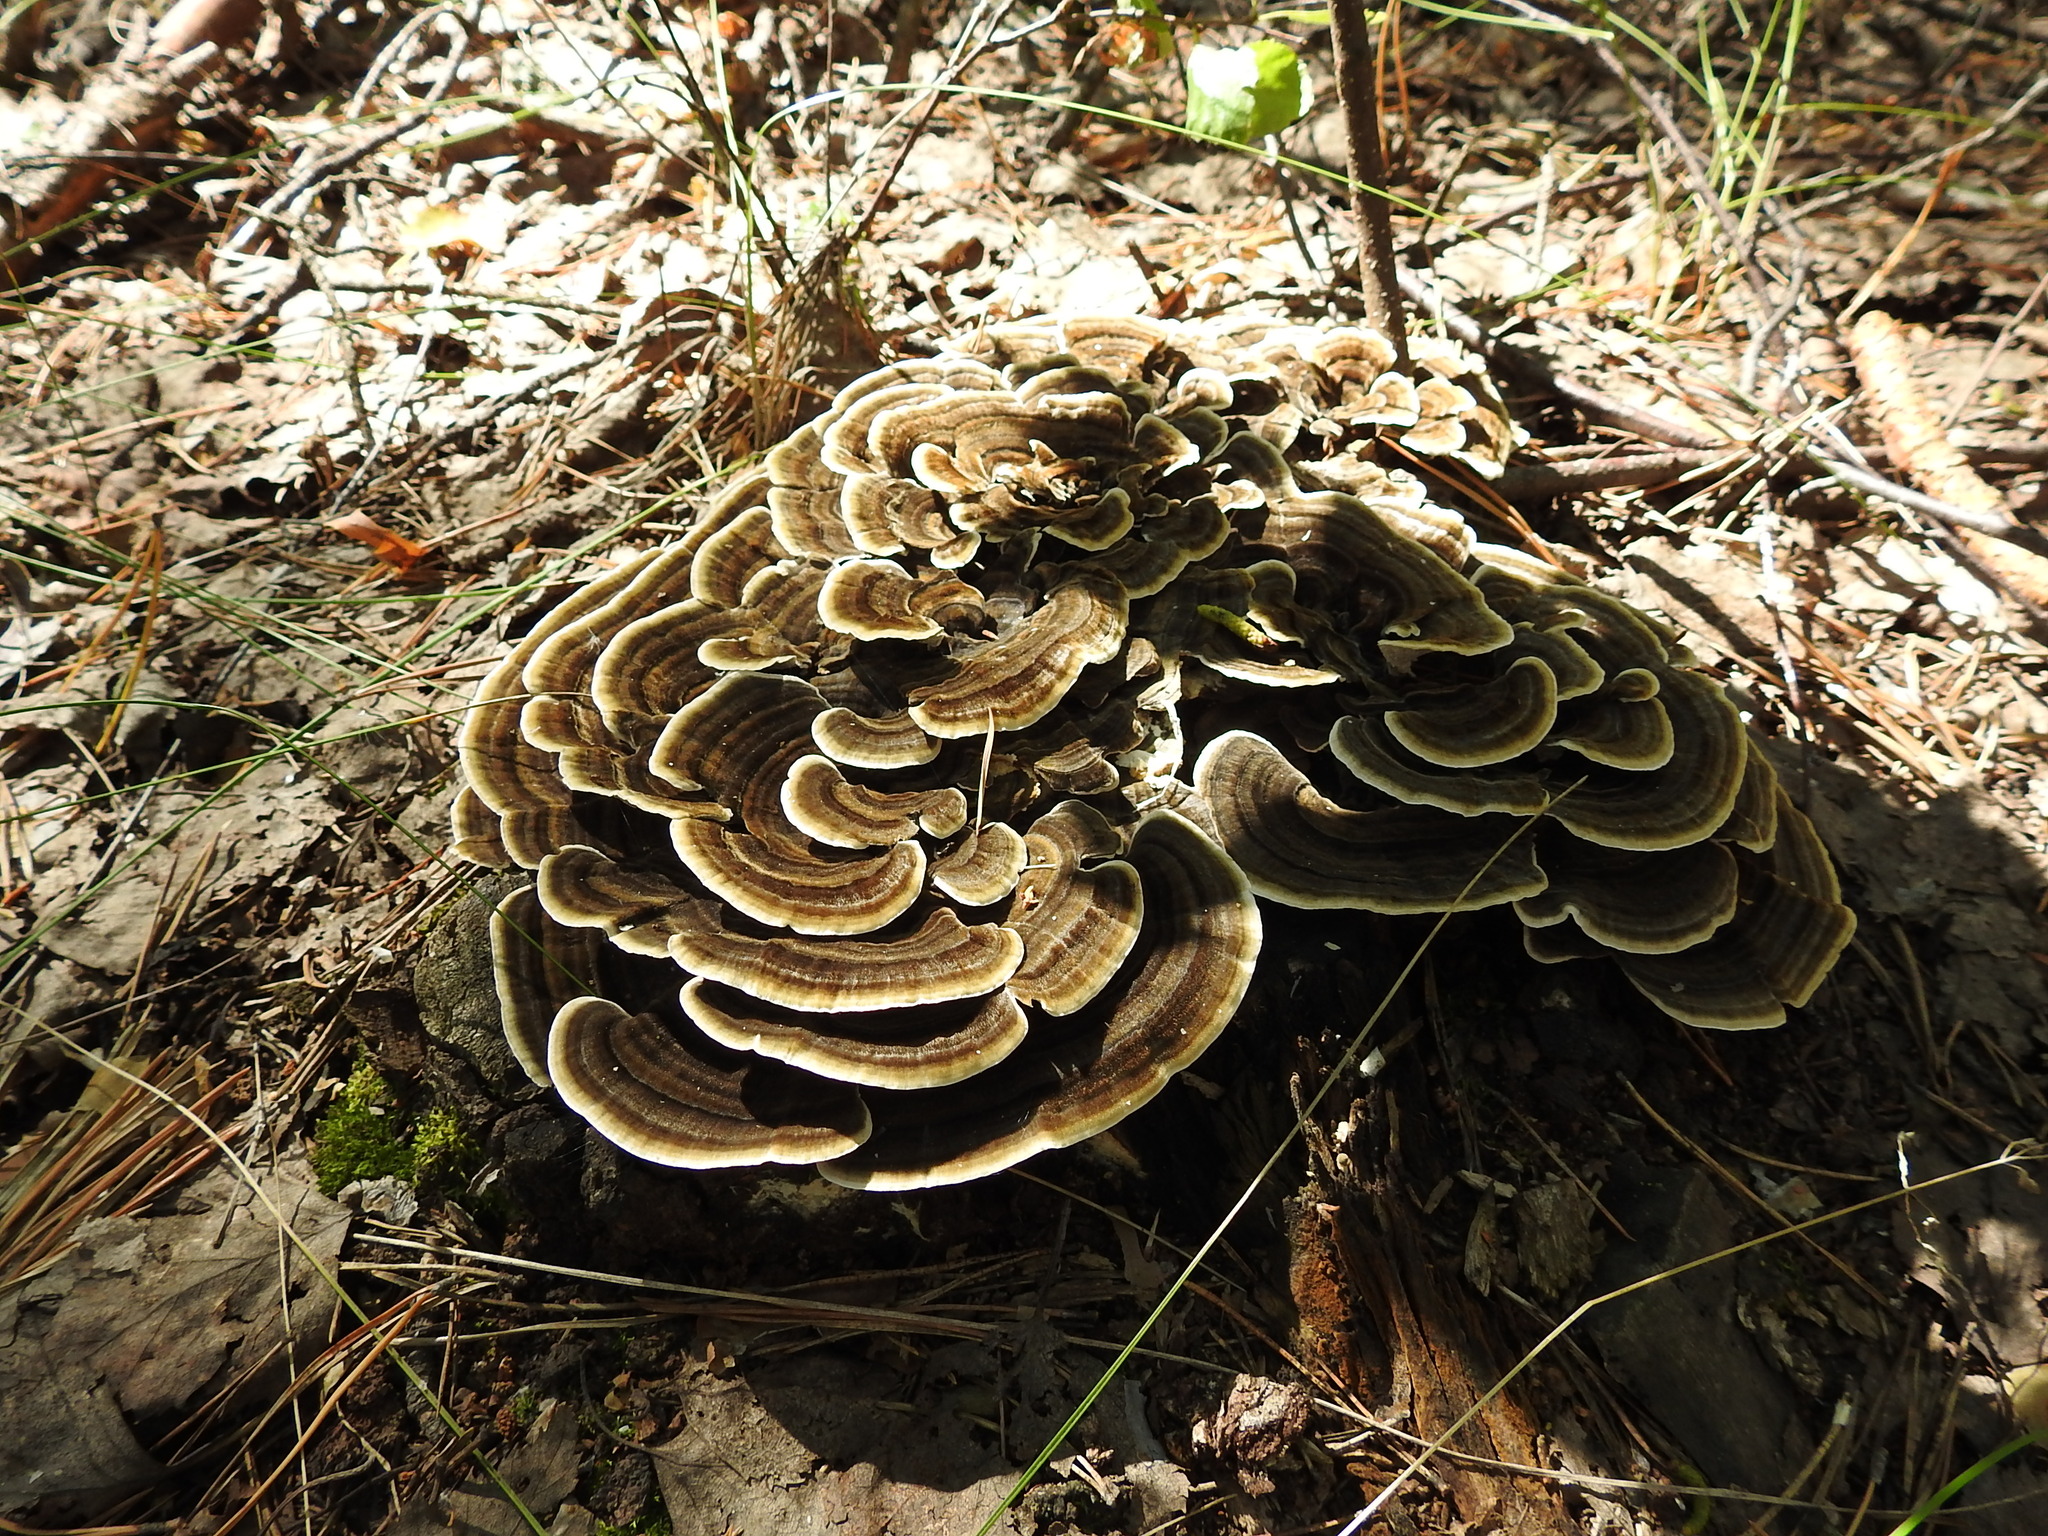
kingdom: Fungi
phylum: Basidiomycota
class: Agaricomycetes
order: Polyporales
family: Polyporaceae
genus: Trametes
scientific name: Trametes versicolor
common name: Turkeytail
